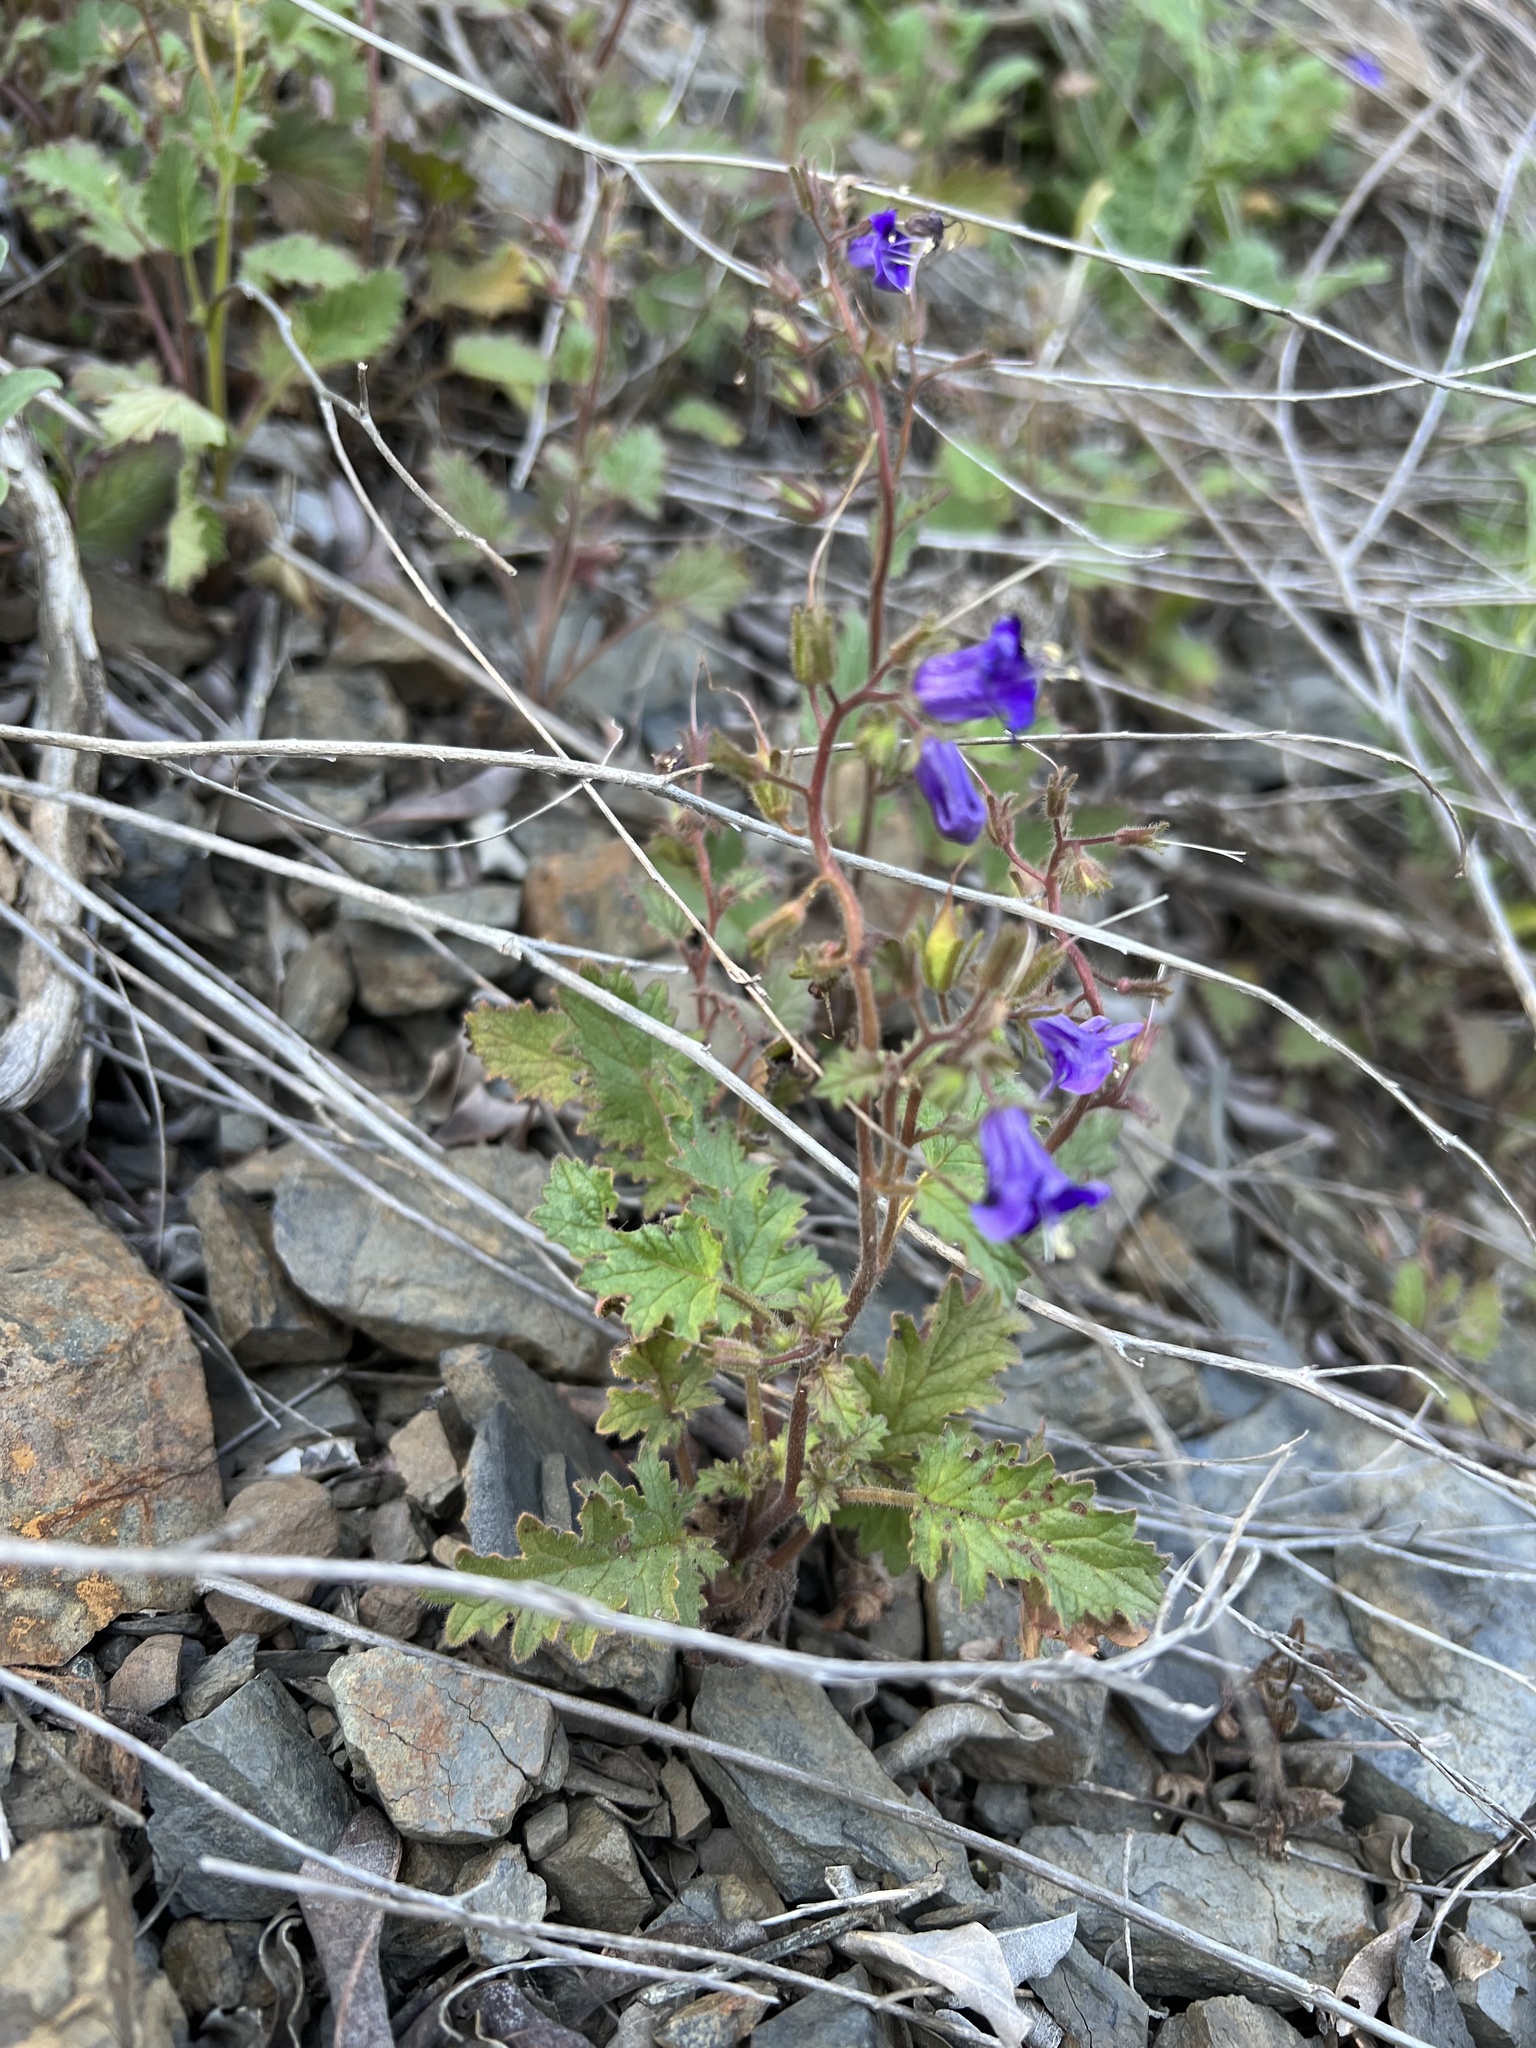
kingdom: Plantae
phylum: Tracheophyta
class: Magnoliopsida
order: Boraginales
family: Hydrophyllaceae
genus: Phacelia
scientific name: Phacelia minor
